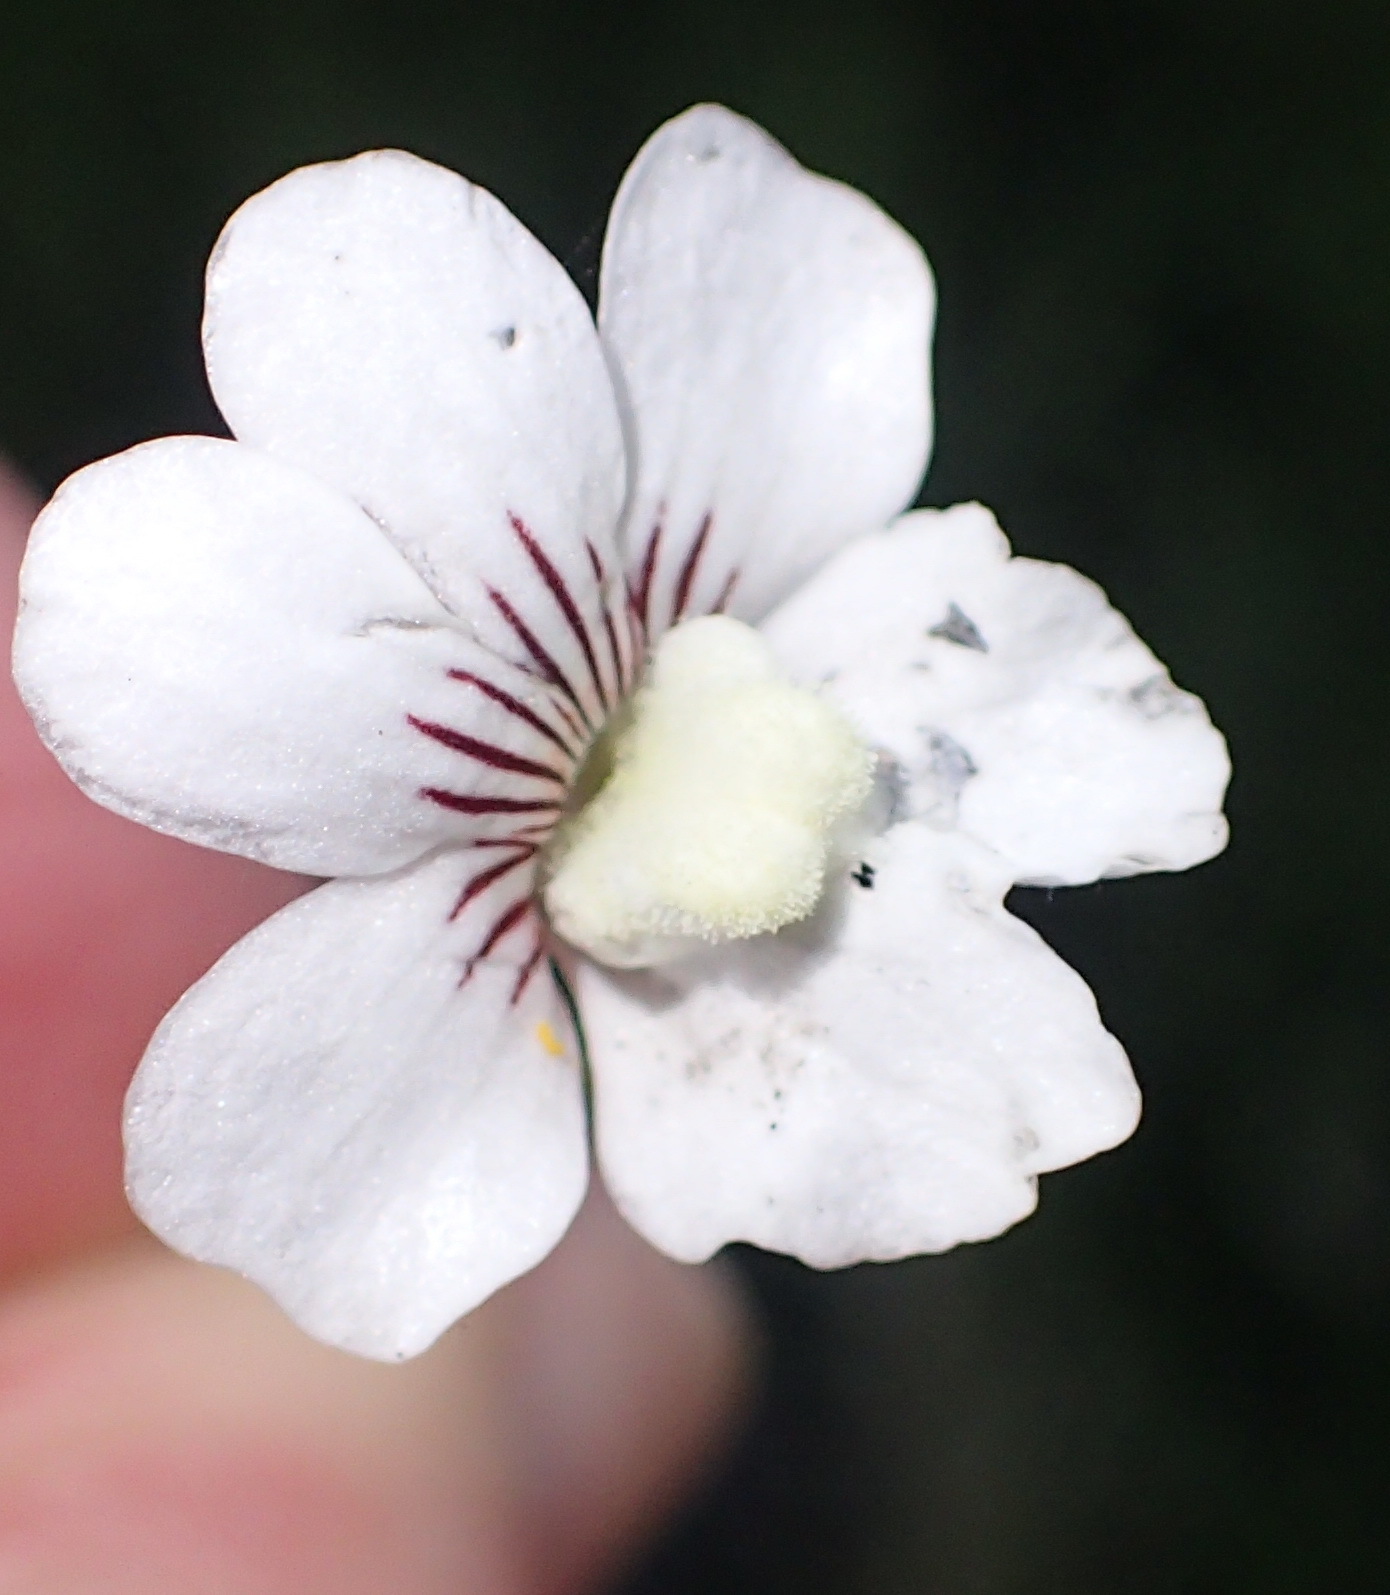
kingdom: Plantae
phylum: Tracheophyta
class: Magnoliopsida
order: Lamiales
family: Scrophulariaceae
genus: Nemesia
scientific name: Nemesia bicornis
